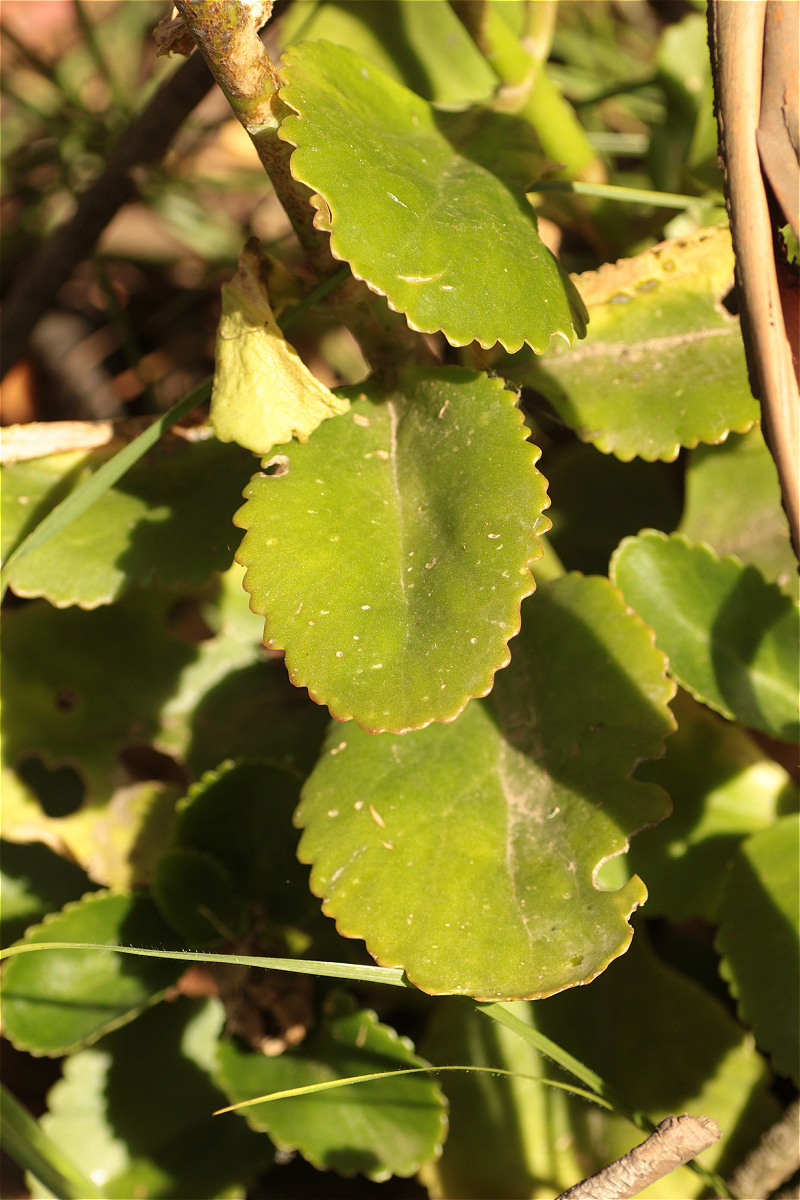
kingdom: Plantae
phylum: Tracheophyta
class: Magnoliopsida
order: Saxifragales
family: Crassulaceae
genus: Kalanchoe
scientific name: Kalanchoe densiflora
